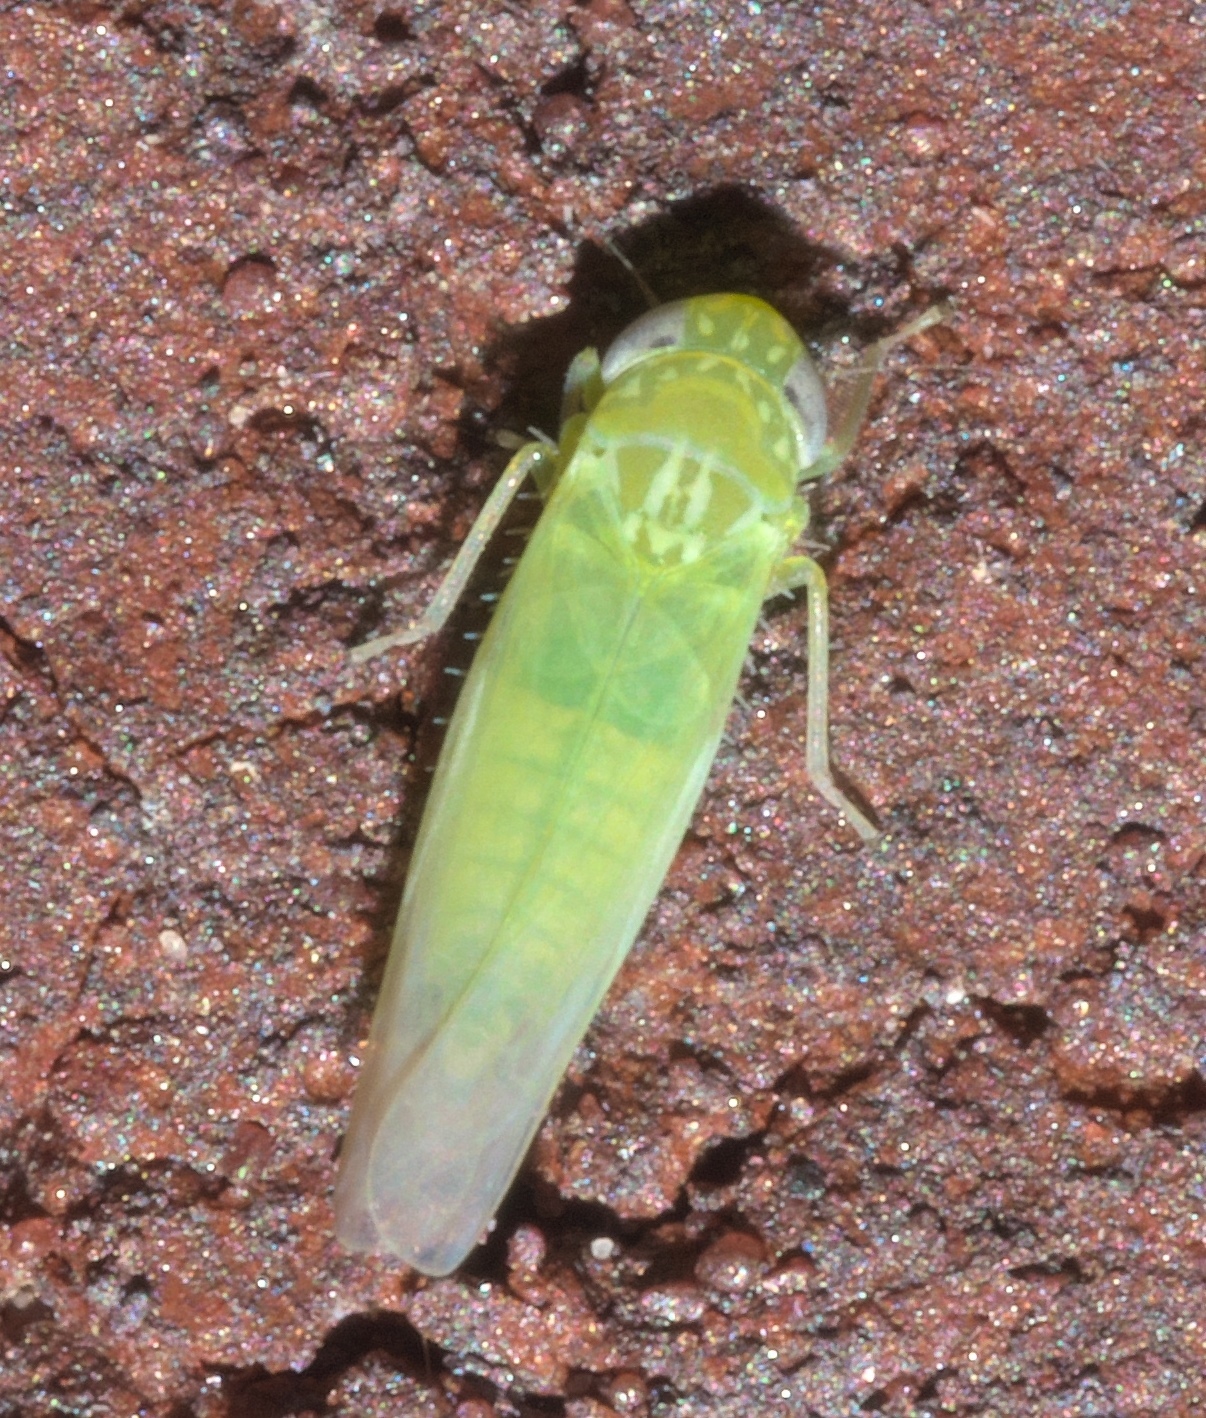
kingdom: Animalia
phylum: Arthropoda
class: Insecta
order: Hemiptera
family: Cicadellidae
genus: Empoasca
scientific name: Empoasca fabae
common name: Potato leafhopper
